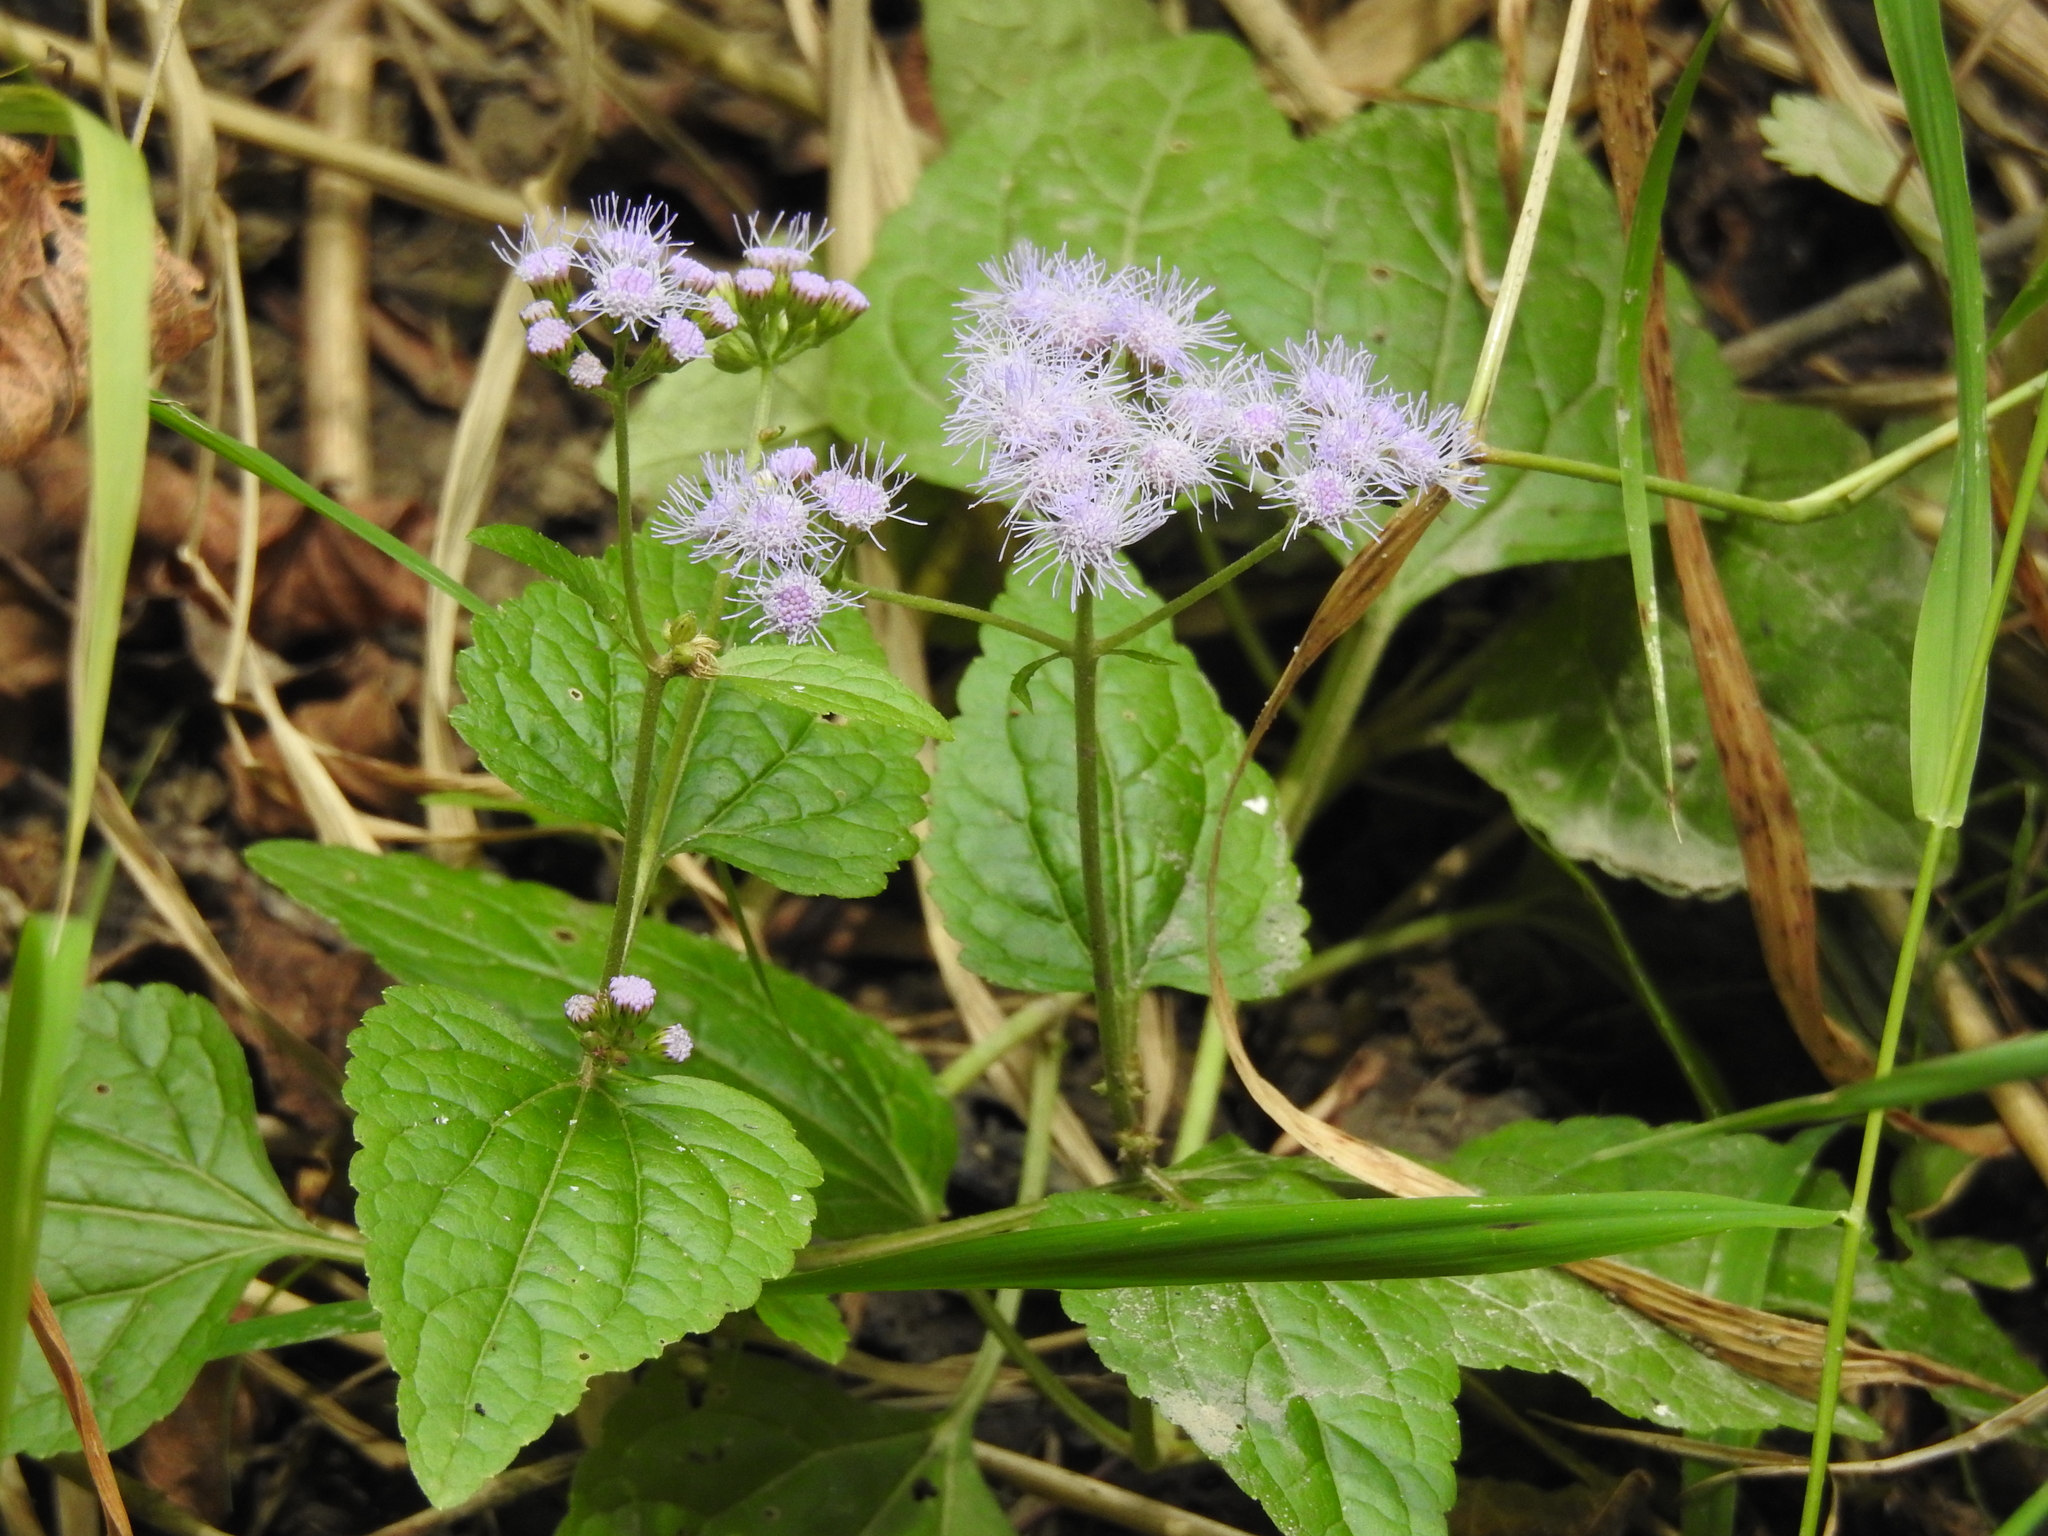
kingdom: Plantae
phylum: Tracheophyta
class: Magnoliopsida
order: Asterales
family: Asteraceae
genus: Conoclinium
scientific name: Conoclinium coelestinum
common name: Blue mistflower
